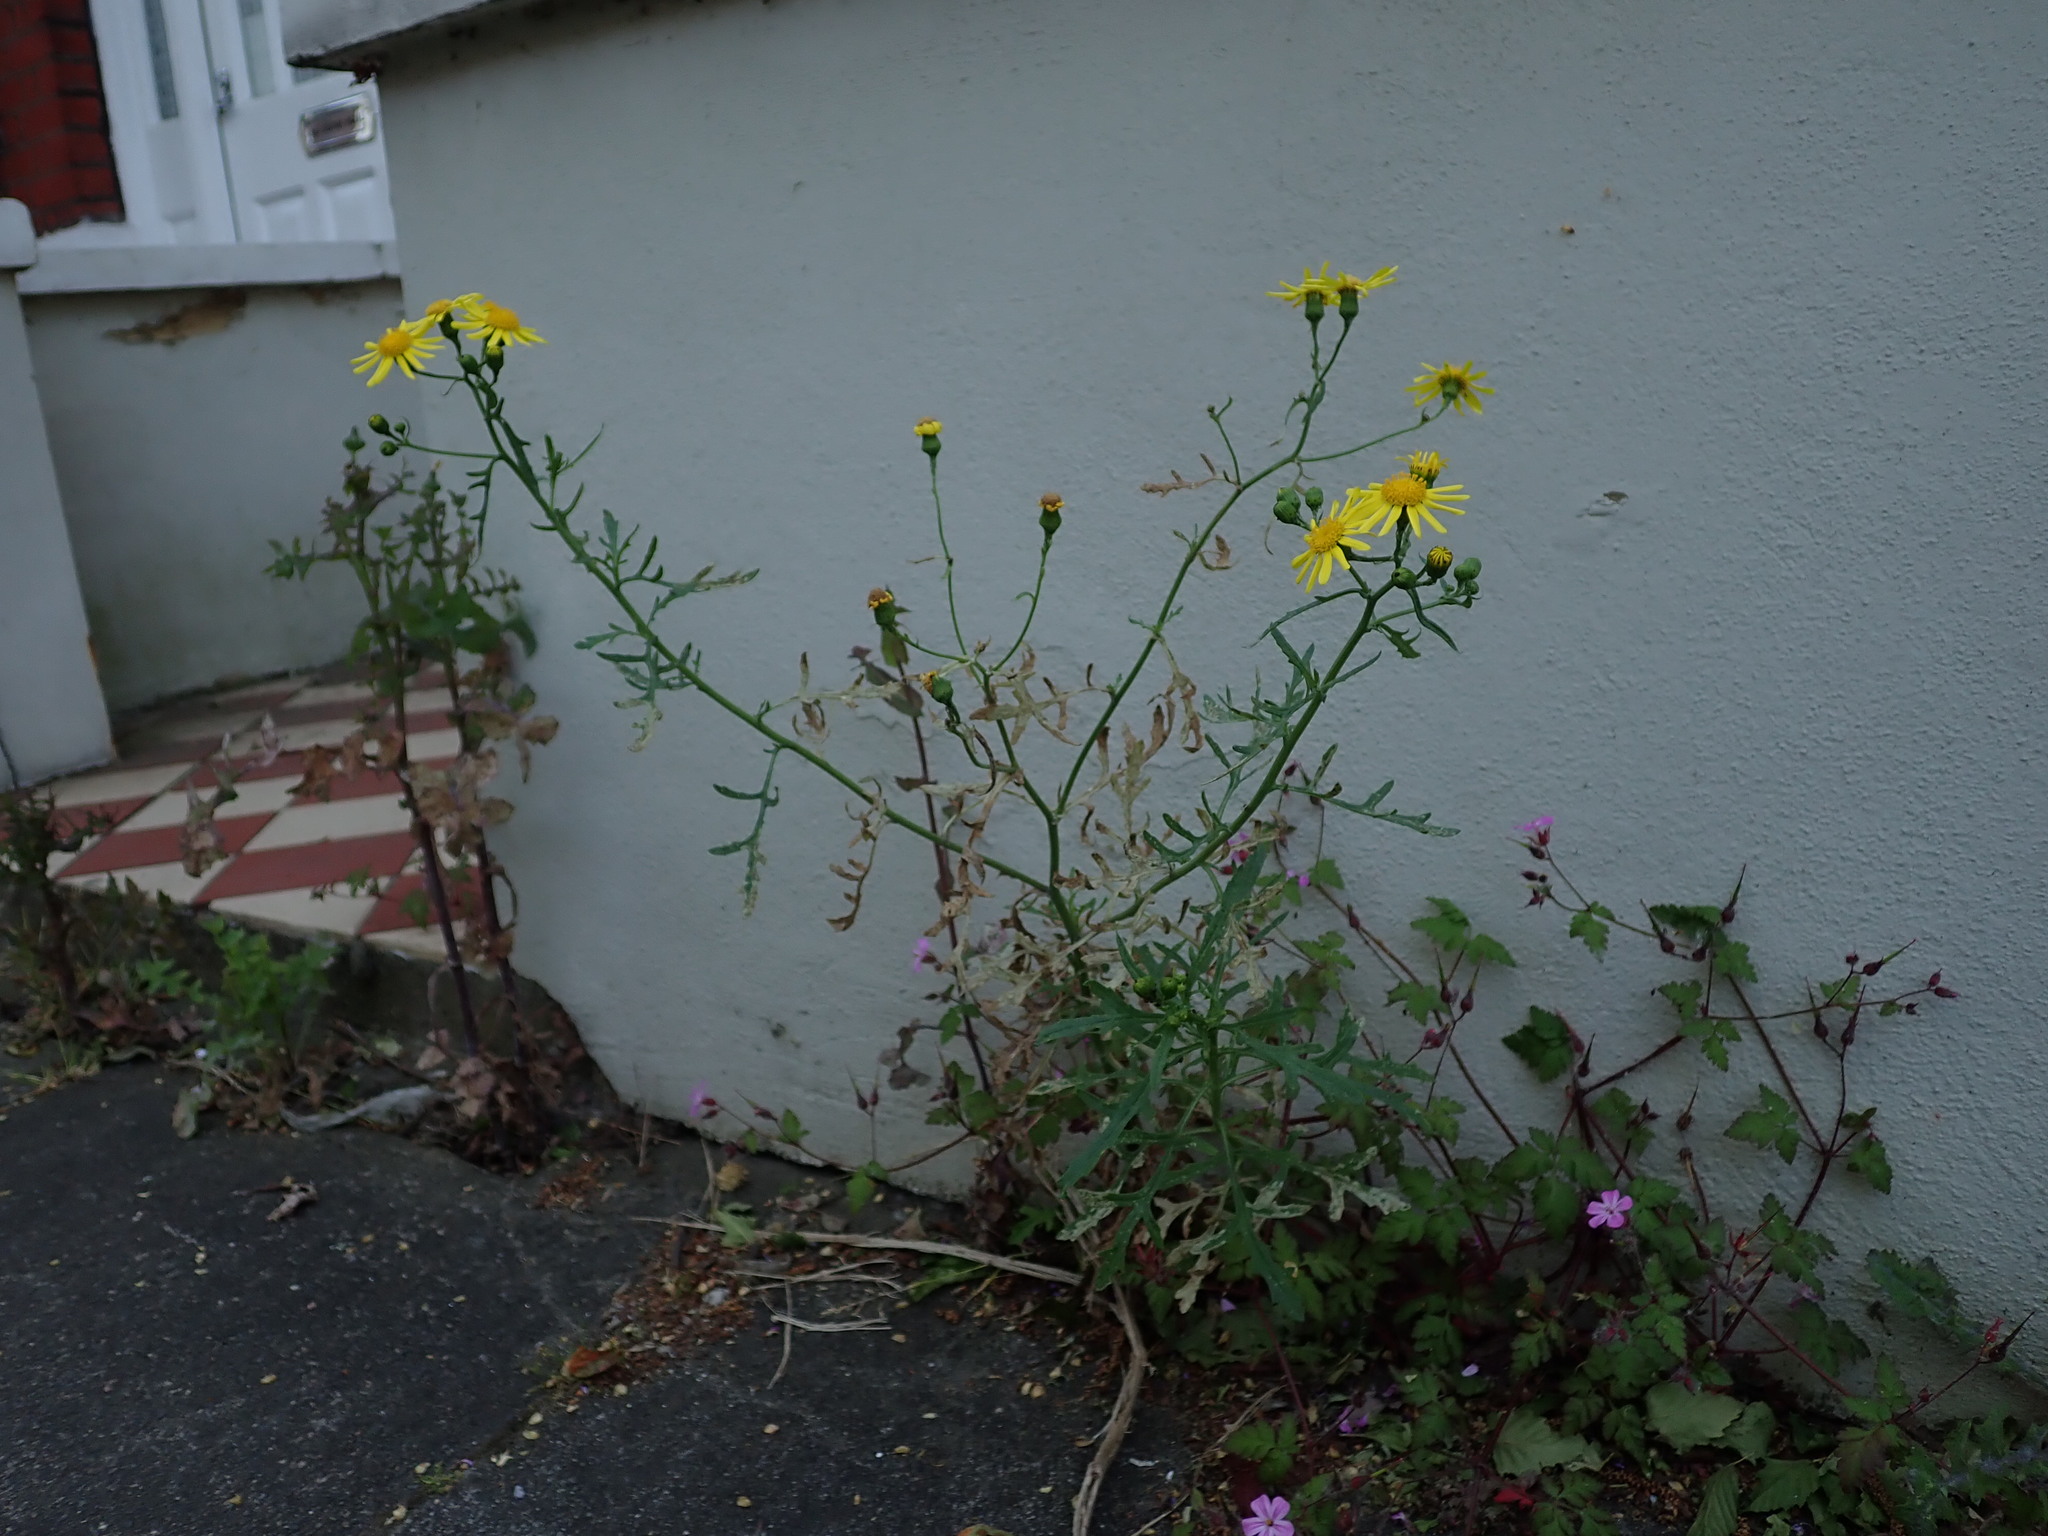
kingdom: Plantae
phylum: Tracheophyta
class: Magnoliopsida
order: Asterales
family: Asteraceae
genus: Senecio
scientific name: Senecio squalidus
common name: Oxford ragwort
